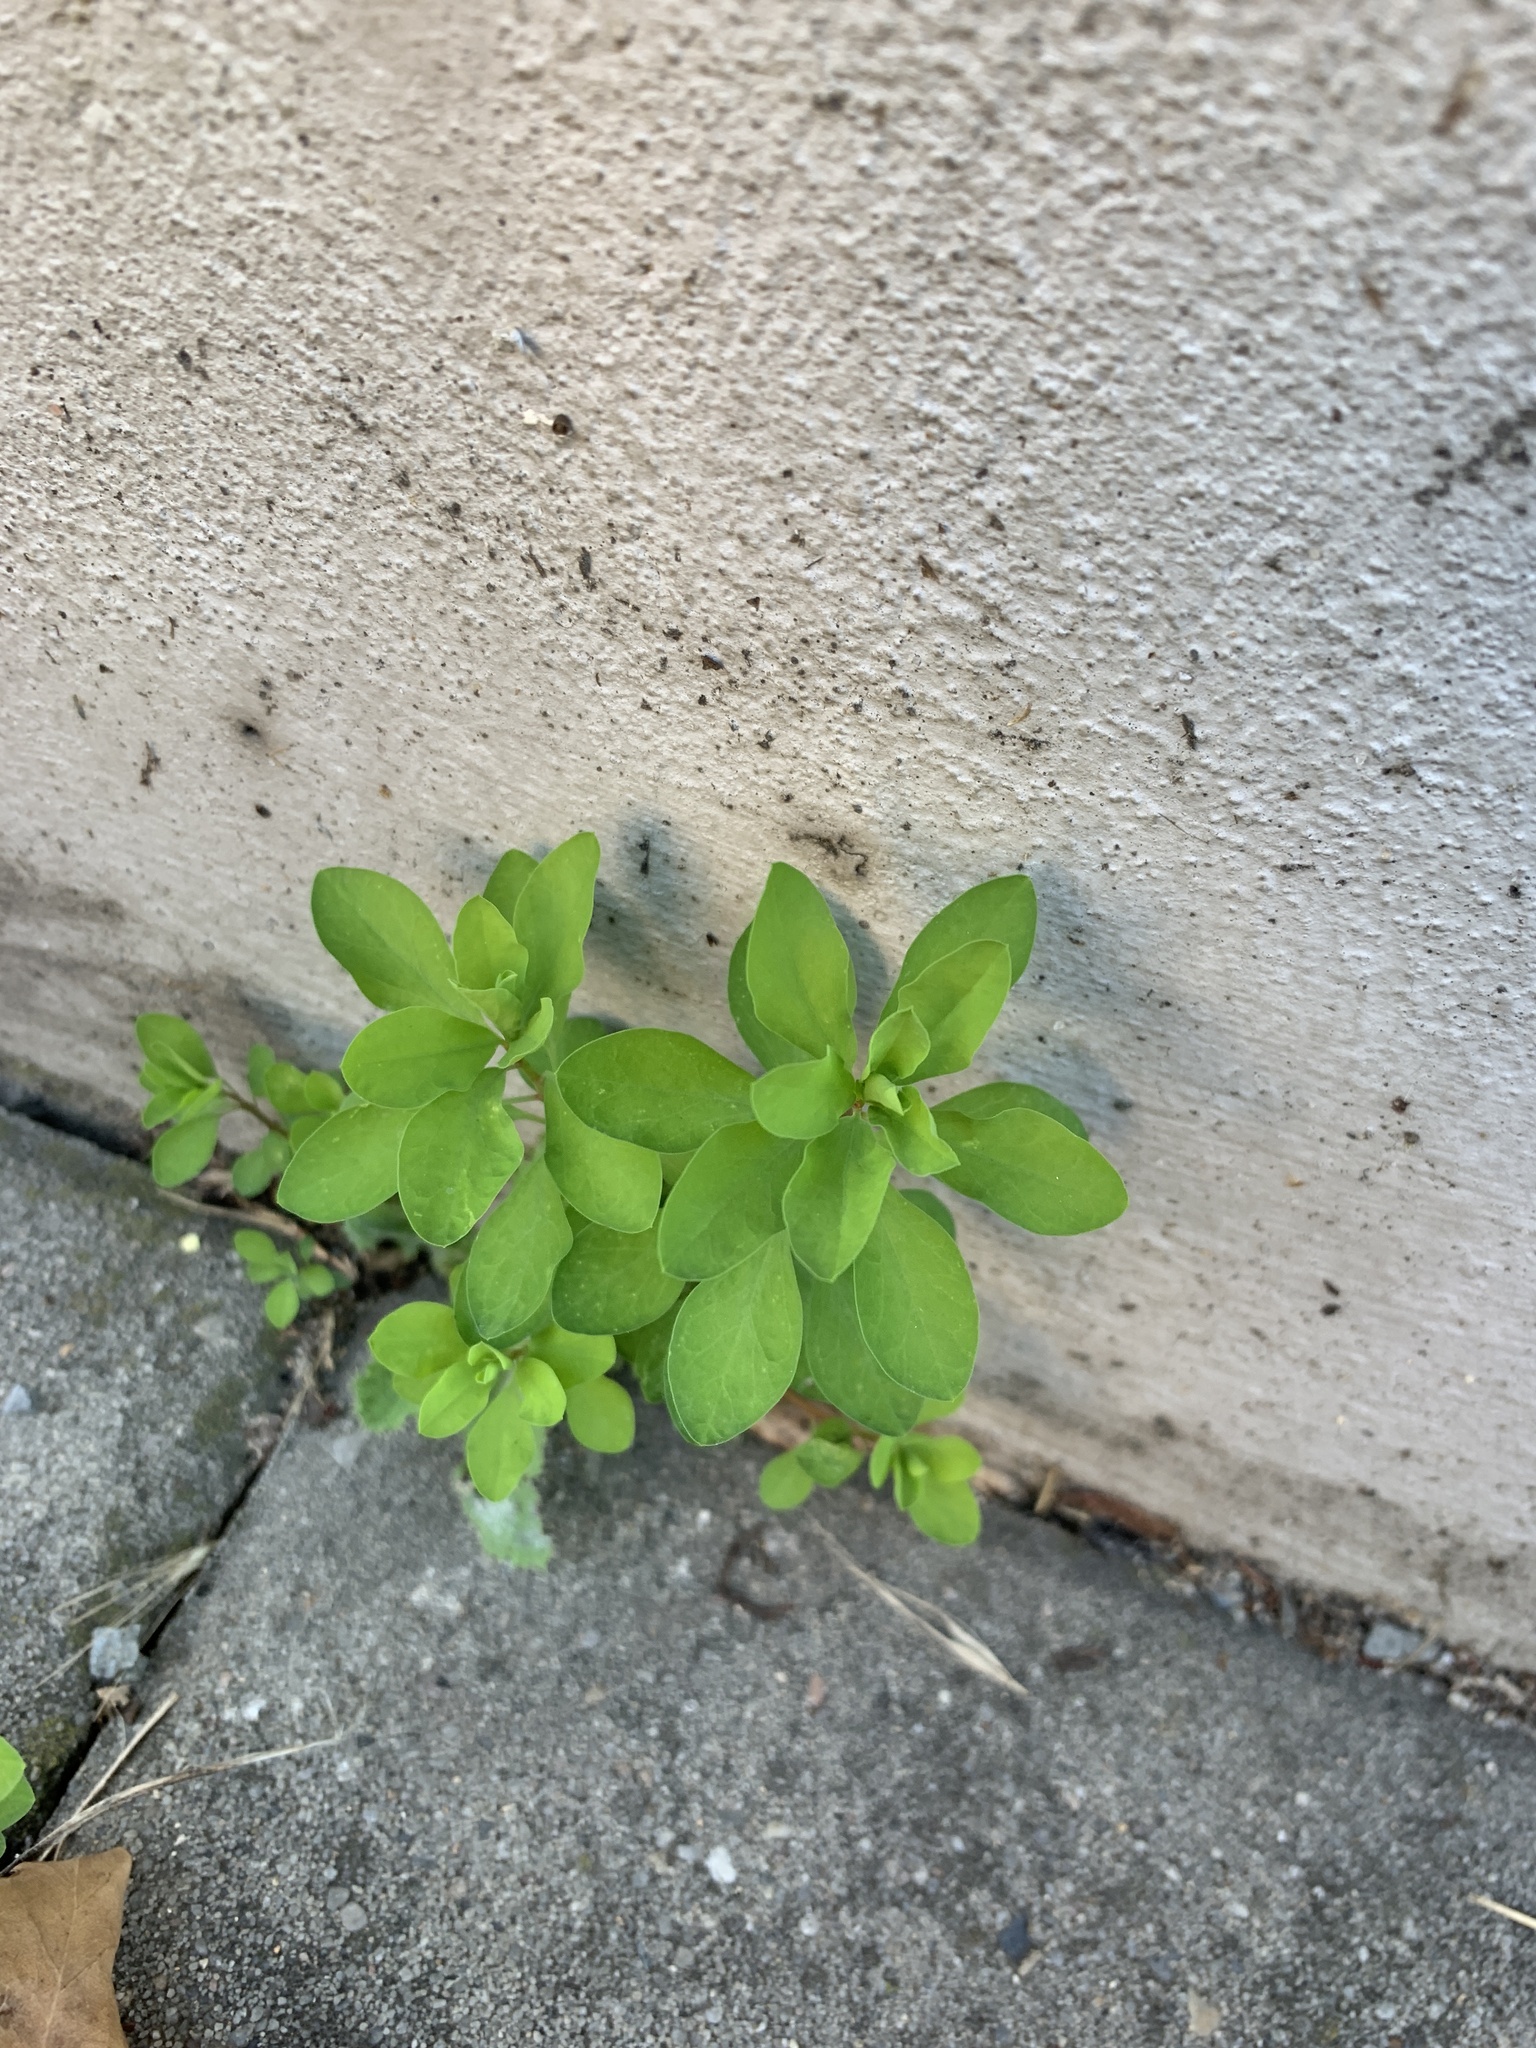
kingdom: Plantae
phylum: Tracheophyta
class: Magnoliopsida
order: Malpighiales
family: Euphorbiaceae
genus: Euphorbia
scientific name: Euphorbia peplus
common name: Petty spurge
